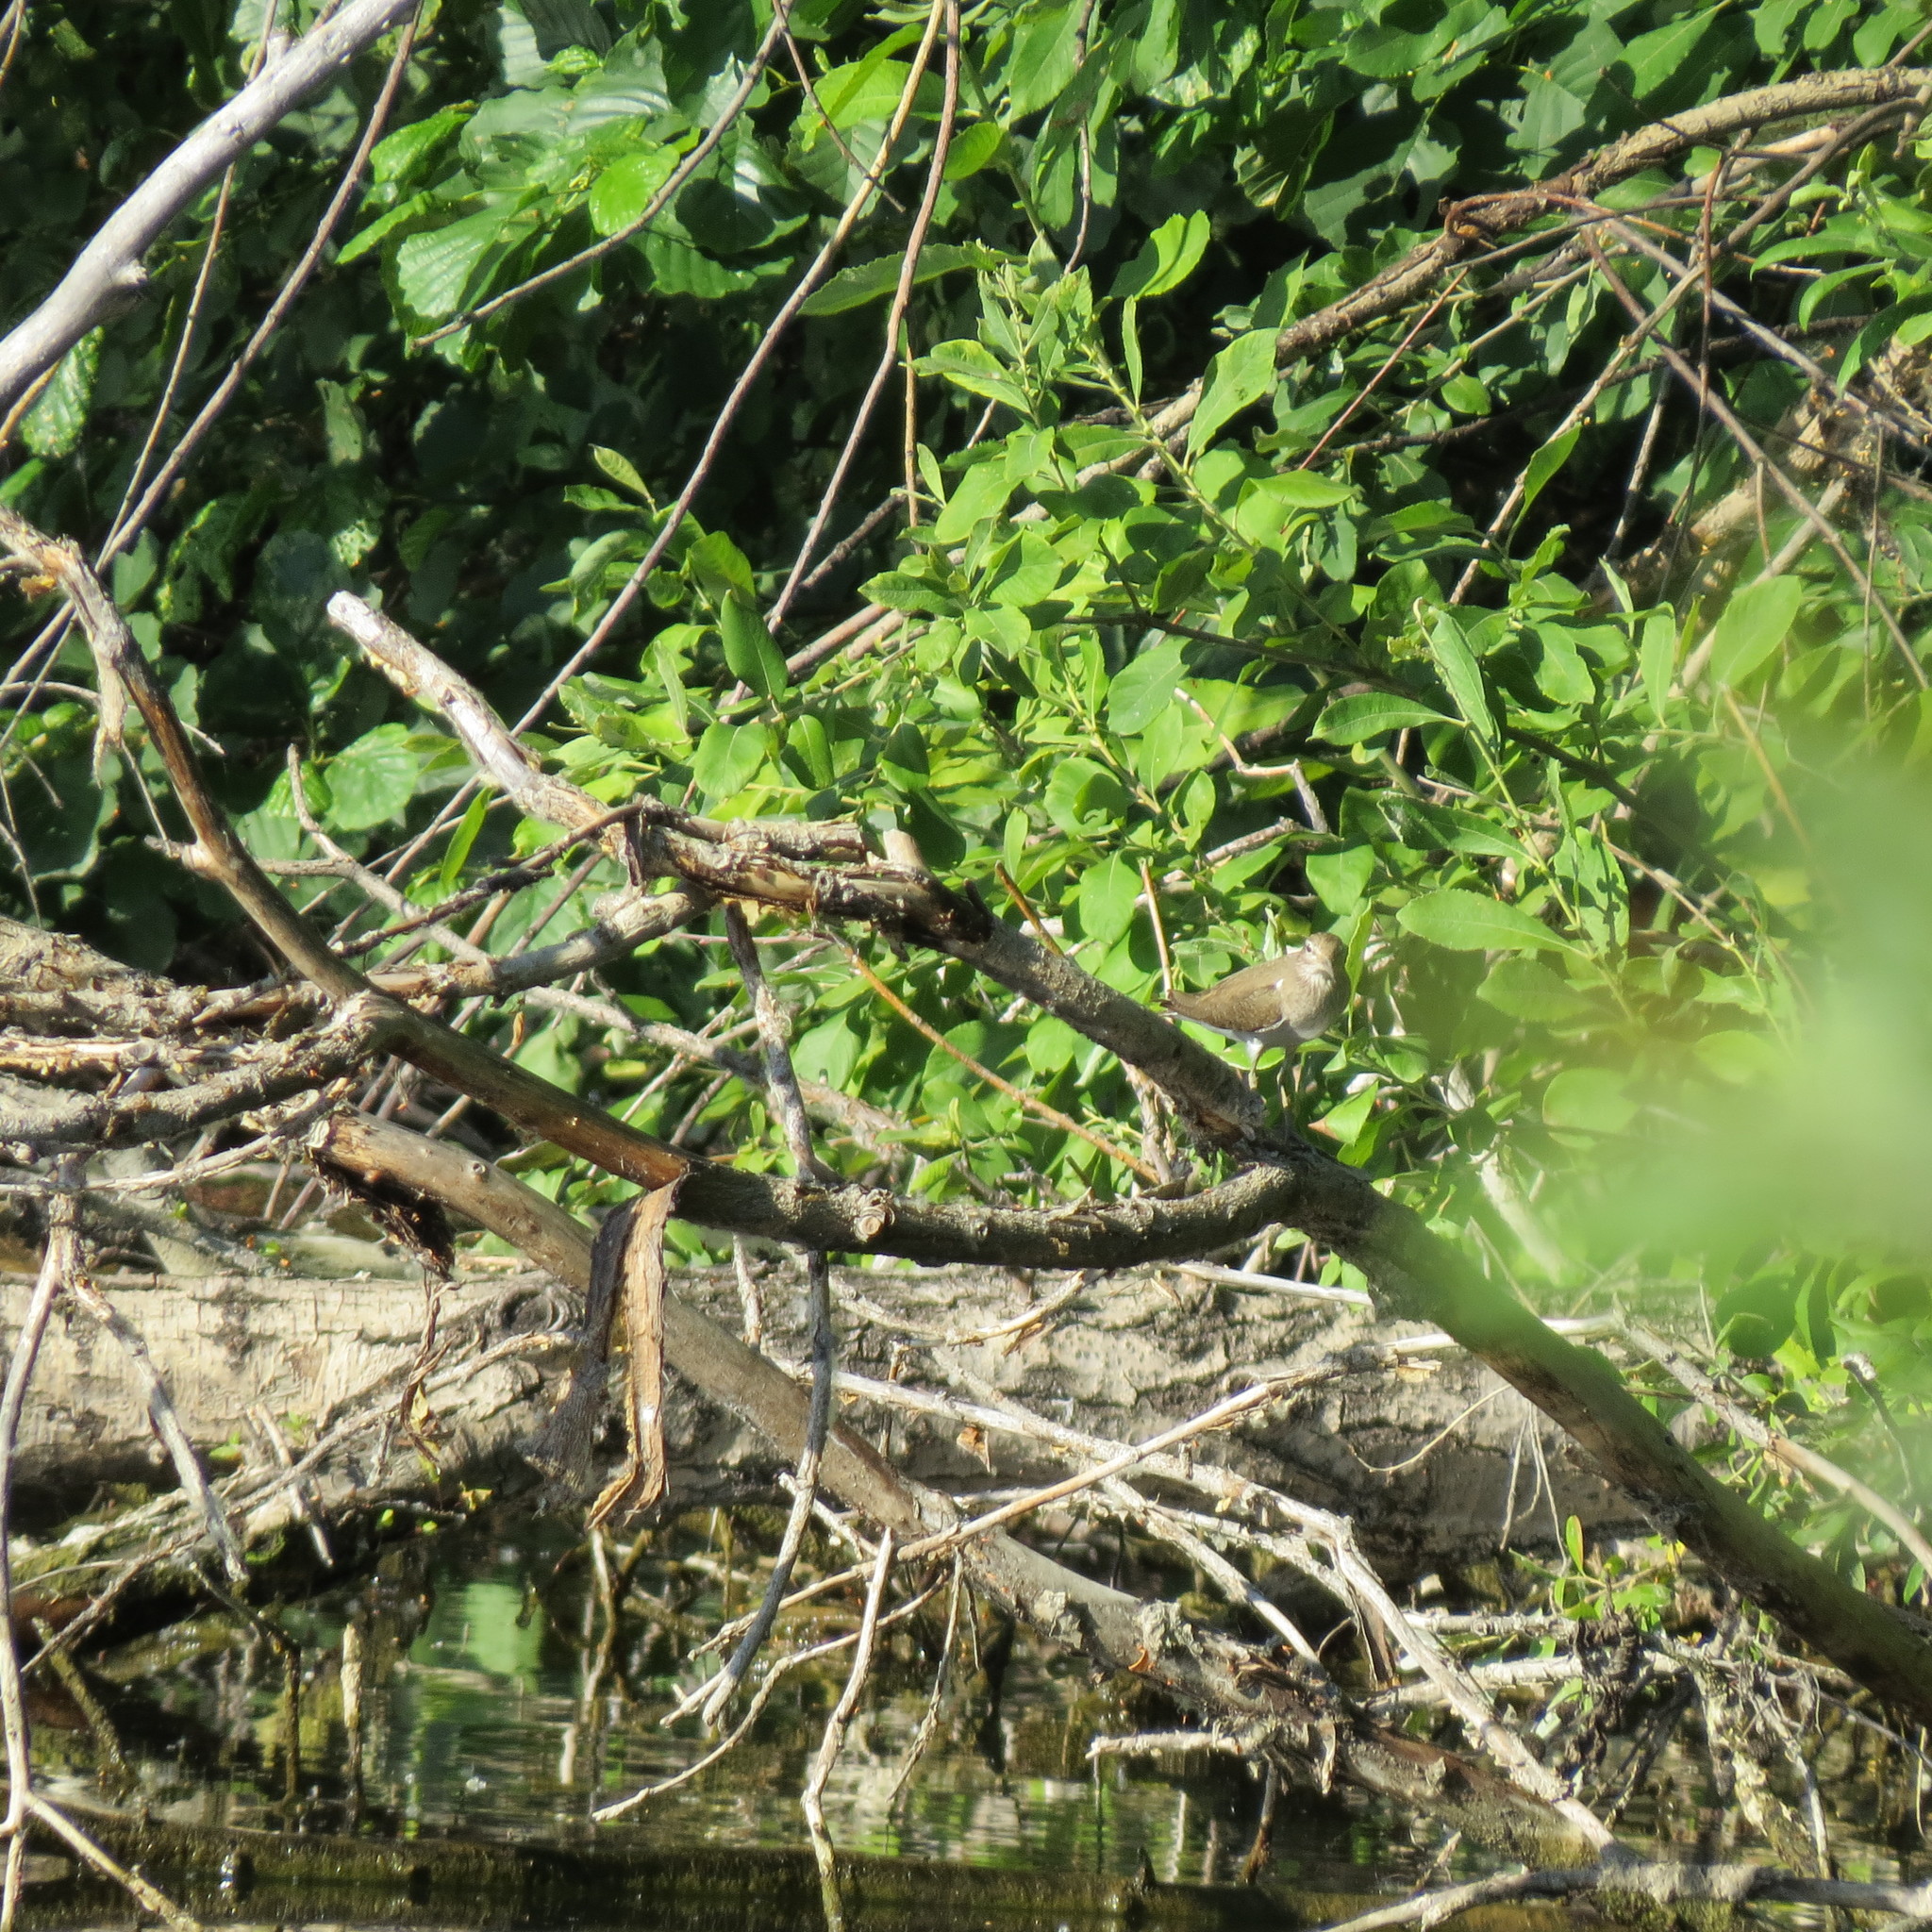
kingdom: Animalia
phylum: Chordata
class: Aves
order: Charadriiformes
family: Scolopacidae
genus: Actitis
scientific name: Actitis hypoleucos
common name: Common sandpiper
